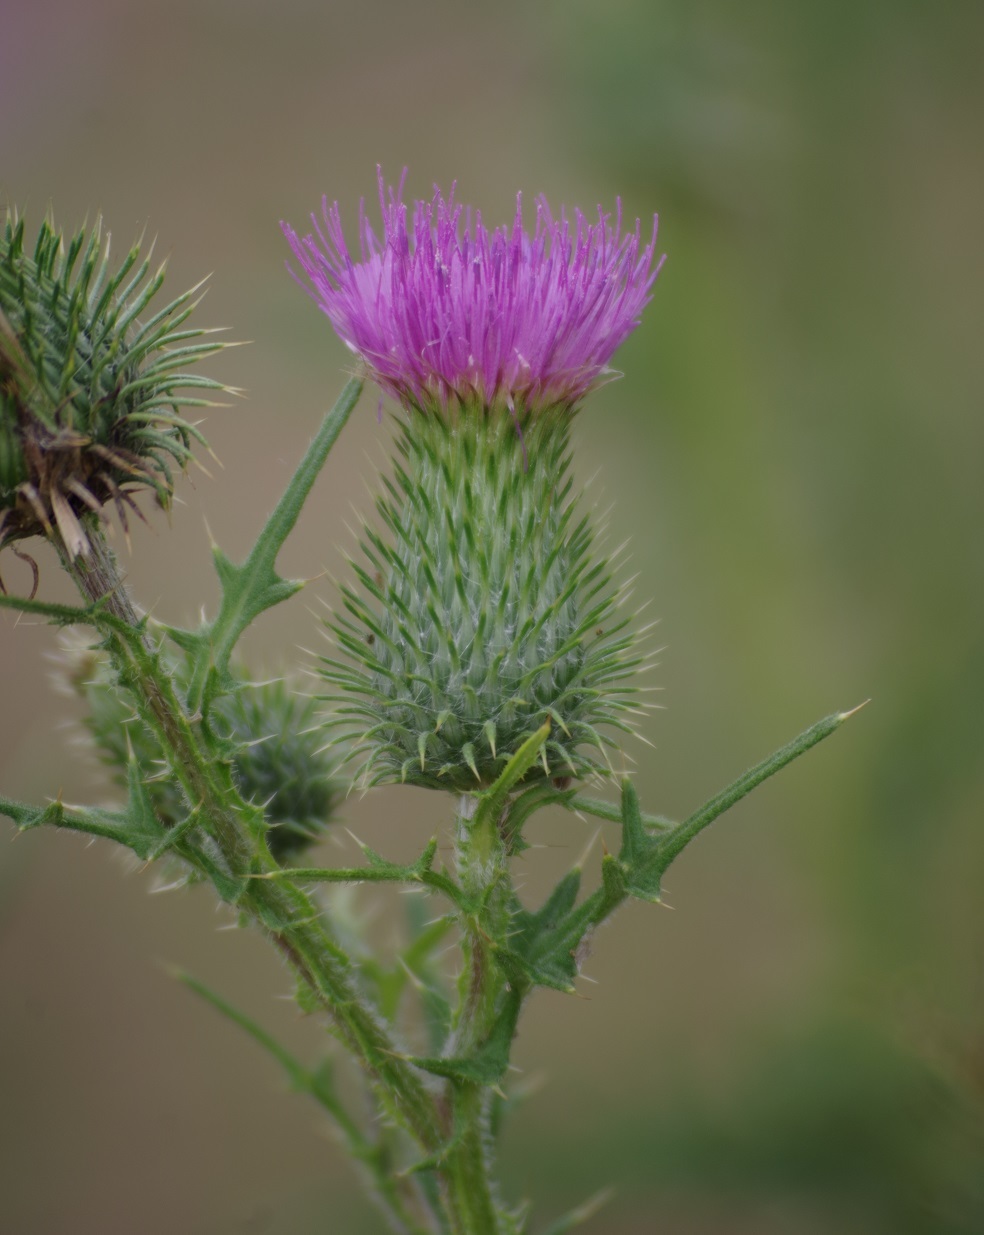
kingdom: Plantae
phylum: Tracheophyta
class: Magnoliopsida
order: Asterales
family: Asteraceae
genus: Cirsium
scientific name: Cirsium vulgare
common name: Bull thistle
